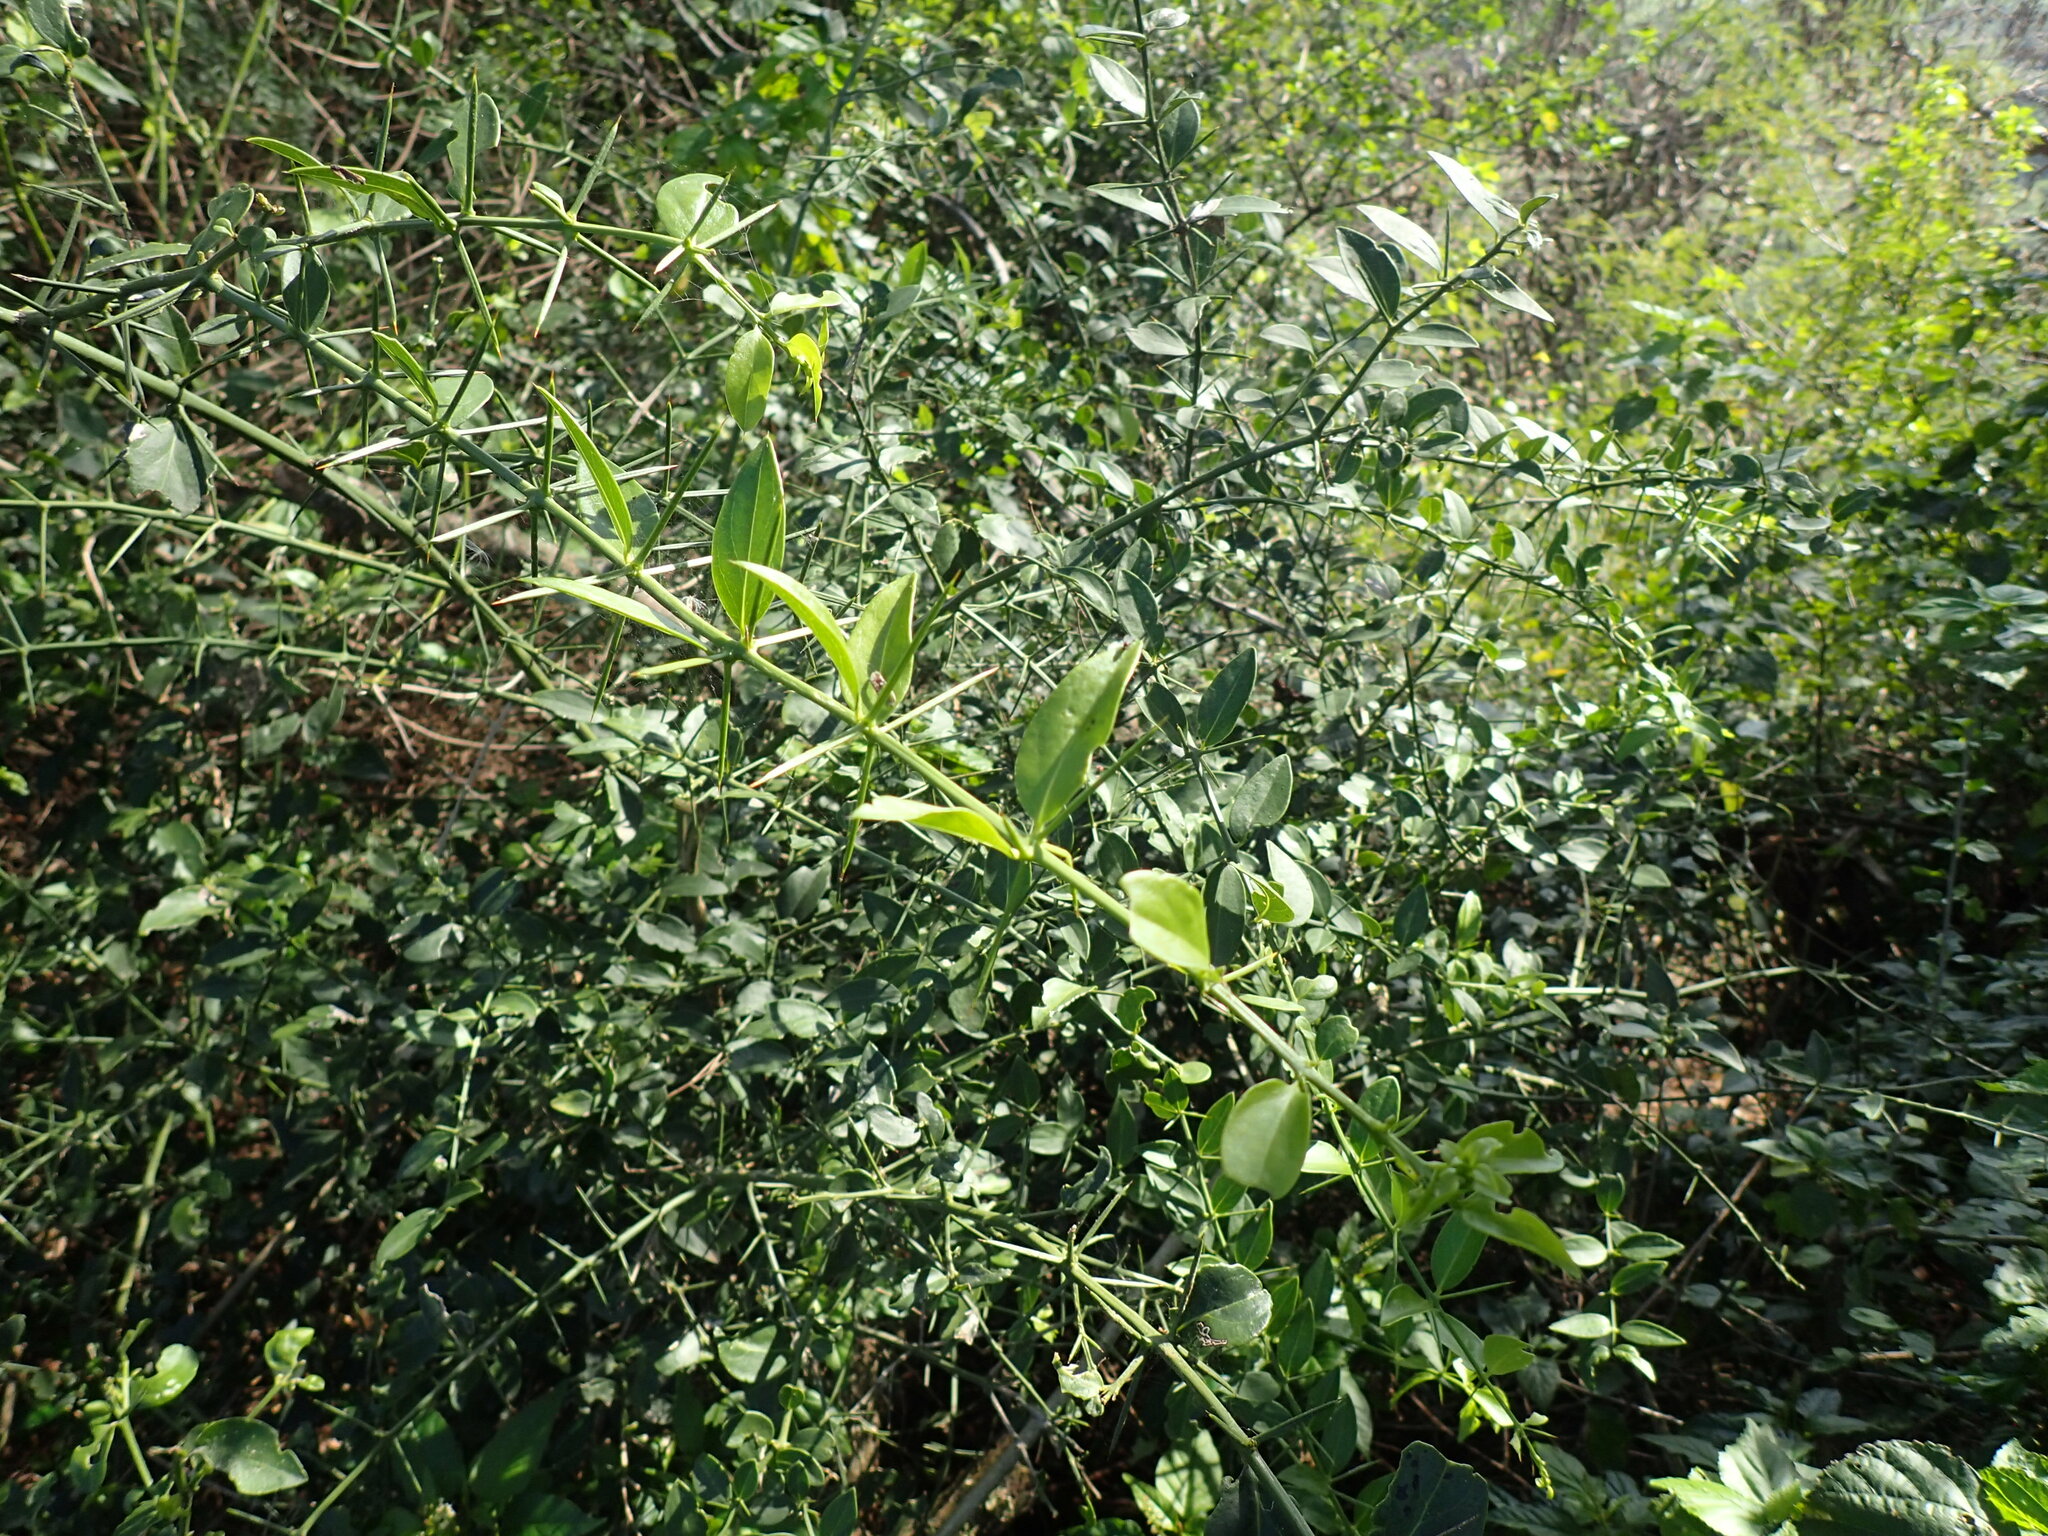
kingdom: Plantae
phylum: Tracheophyta
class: Magnoliopsida
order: Brassicales
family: Salvadoraceae
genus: Azima
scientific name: Azima tetracantha
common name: Needle bush
